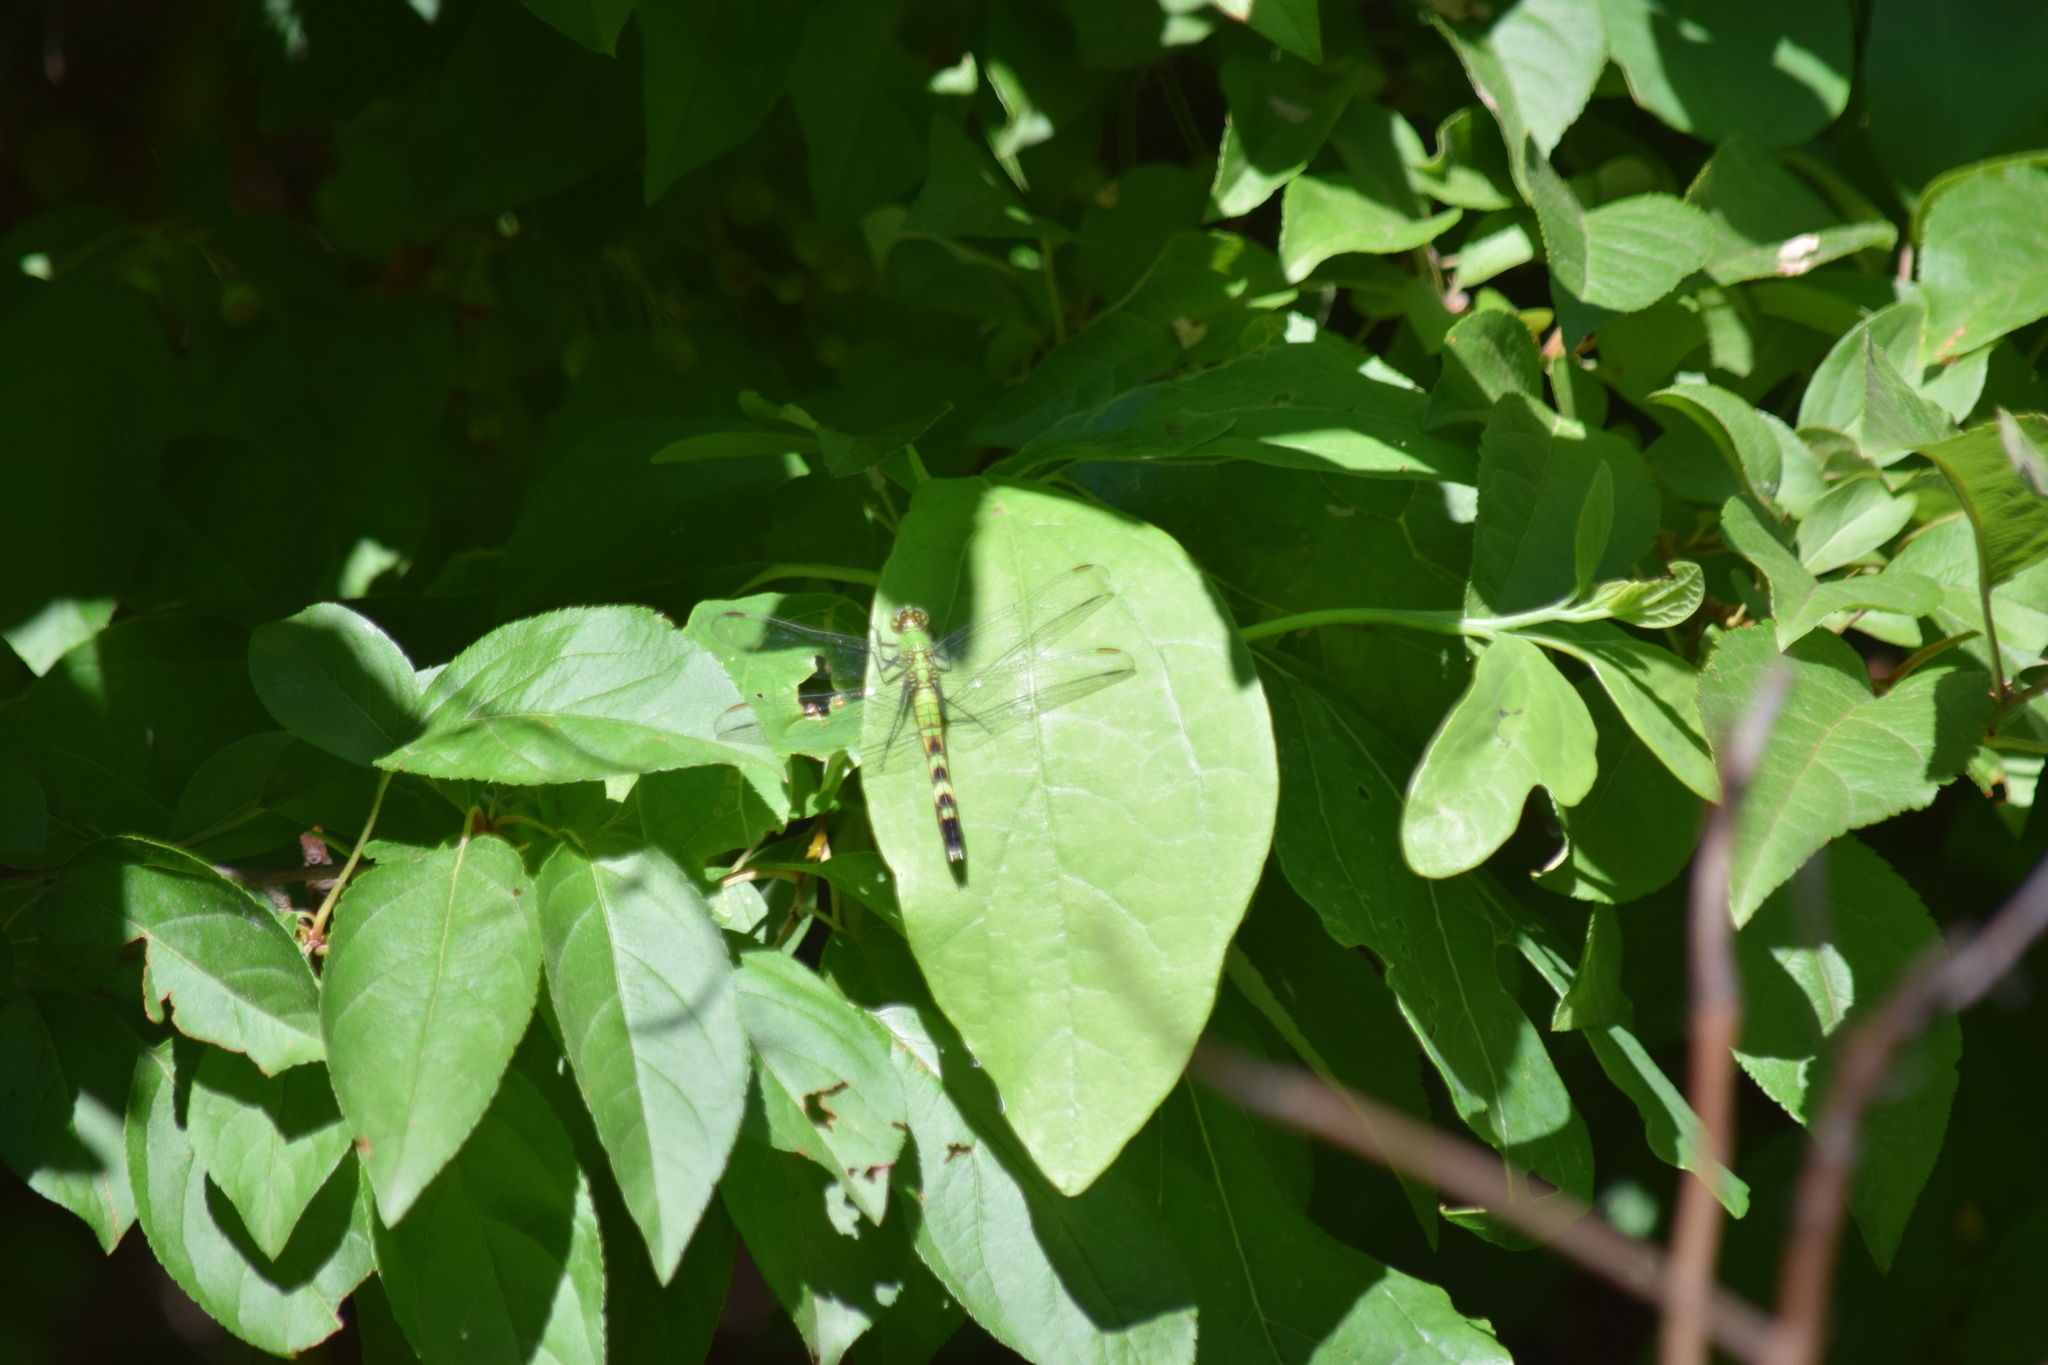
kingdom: Animalia
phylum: Arthropoda
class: Insecta
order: Odonata
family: Libellulidae
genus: Erythemis
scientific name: Erythemis simplicicollis
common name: Eastern pondhawk
